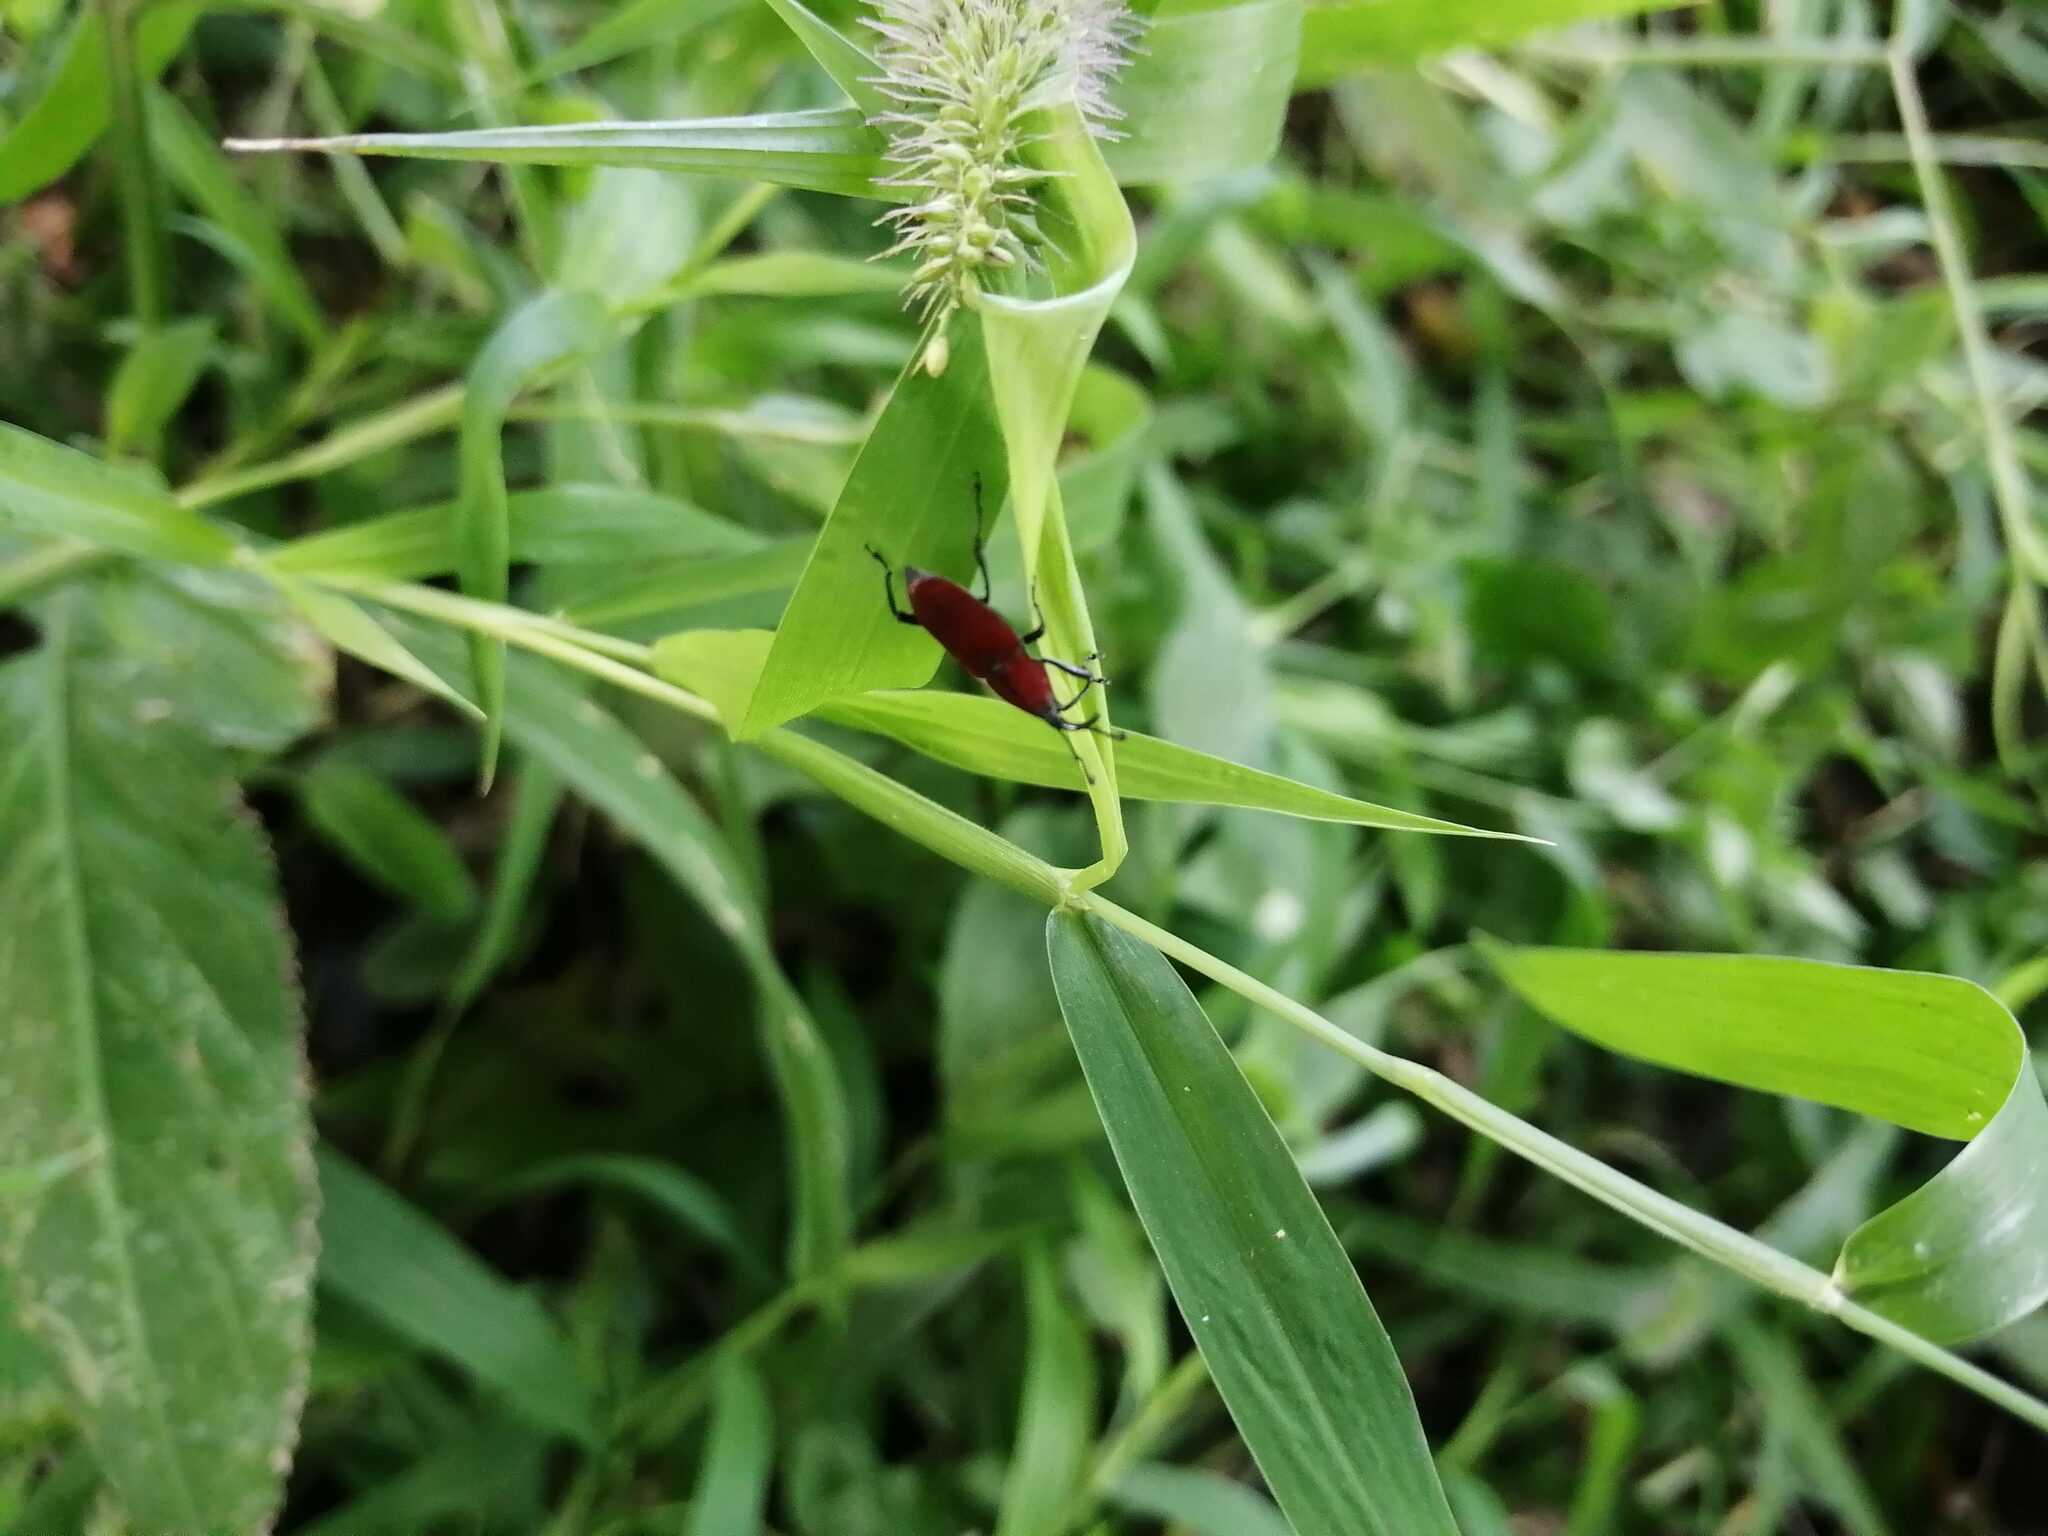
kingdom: Animalia
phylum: Arthropoda
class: Insecta
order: Coleoptera
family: Dryophthoridae
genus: Rhodobaenus
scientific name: Rhodobaenus sanguineus
